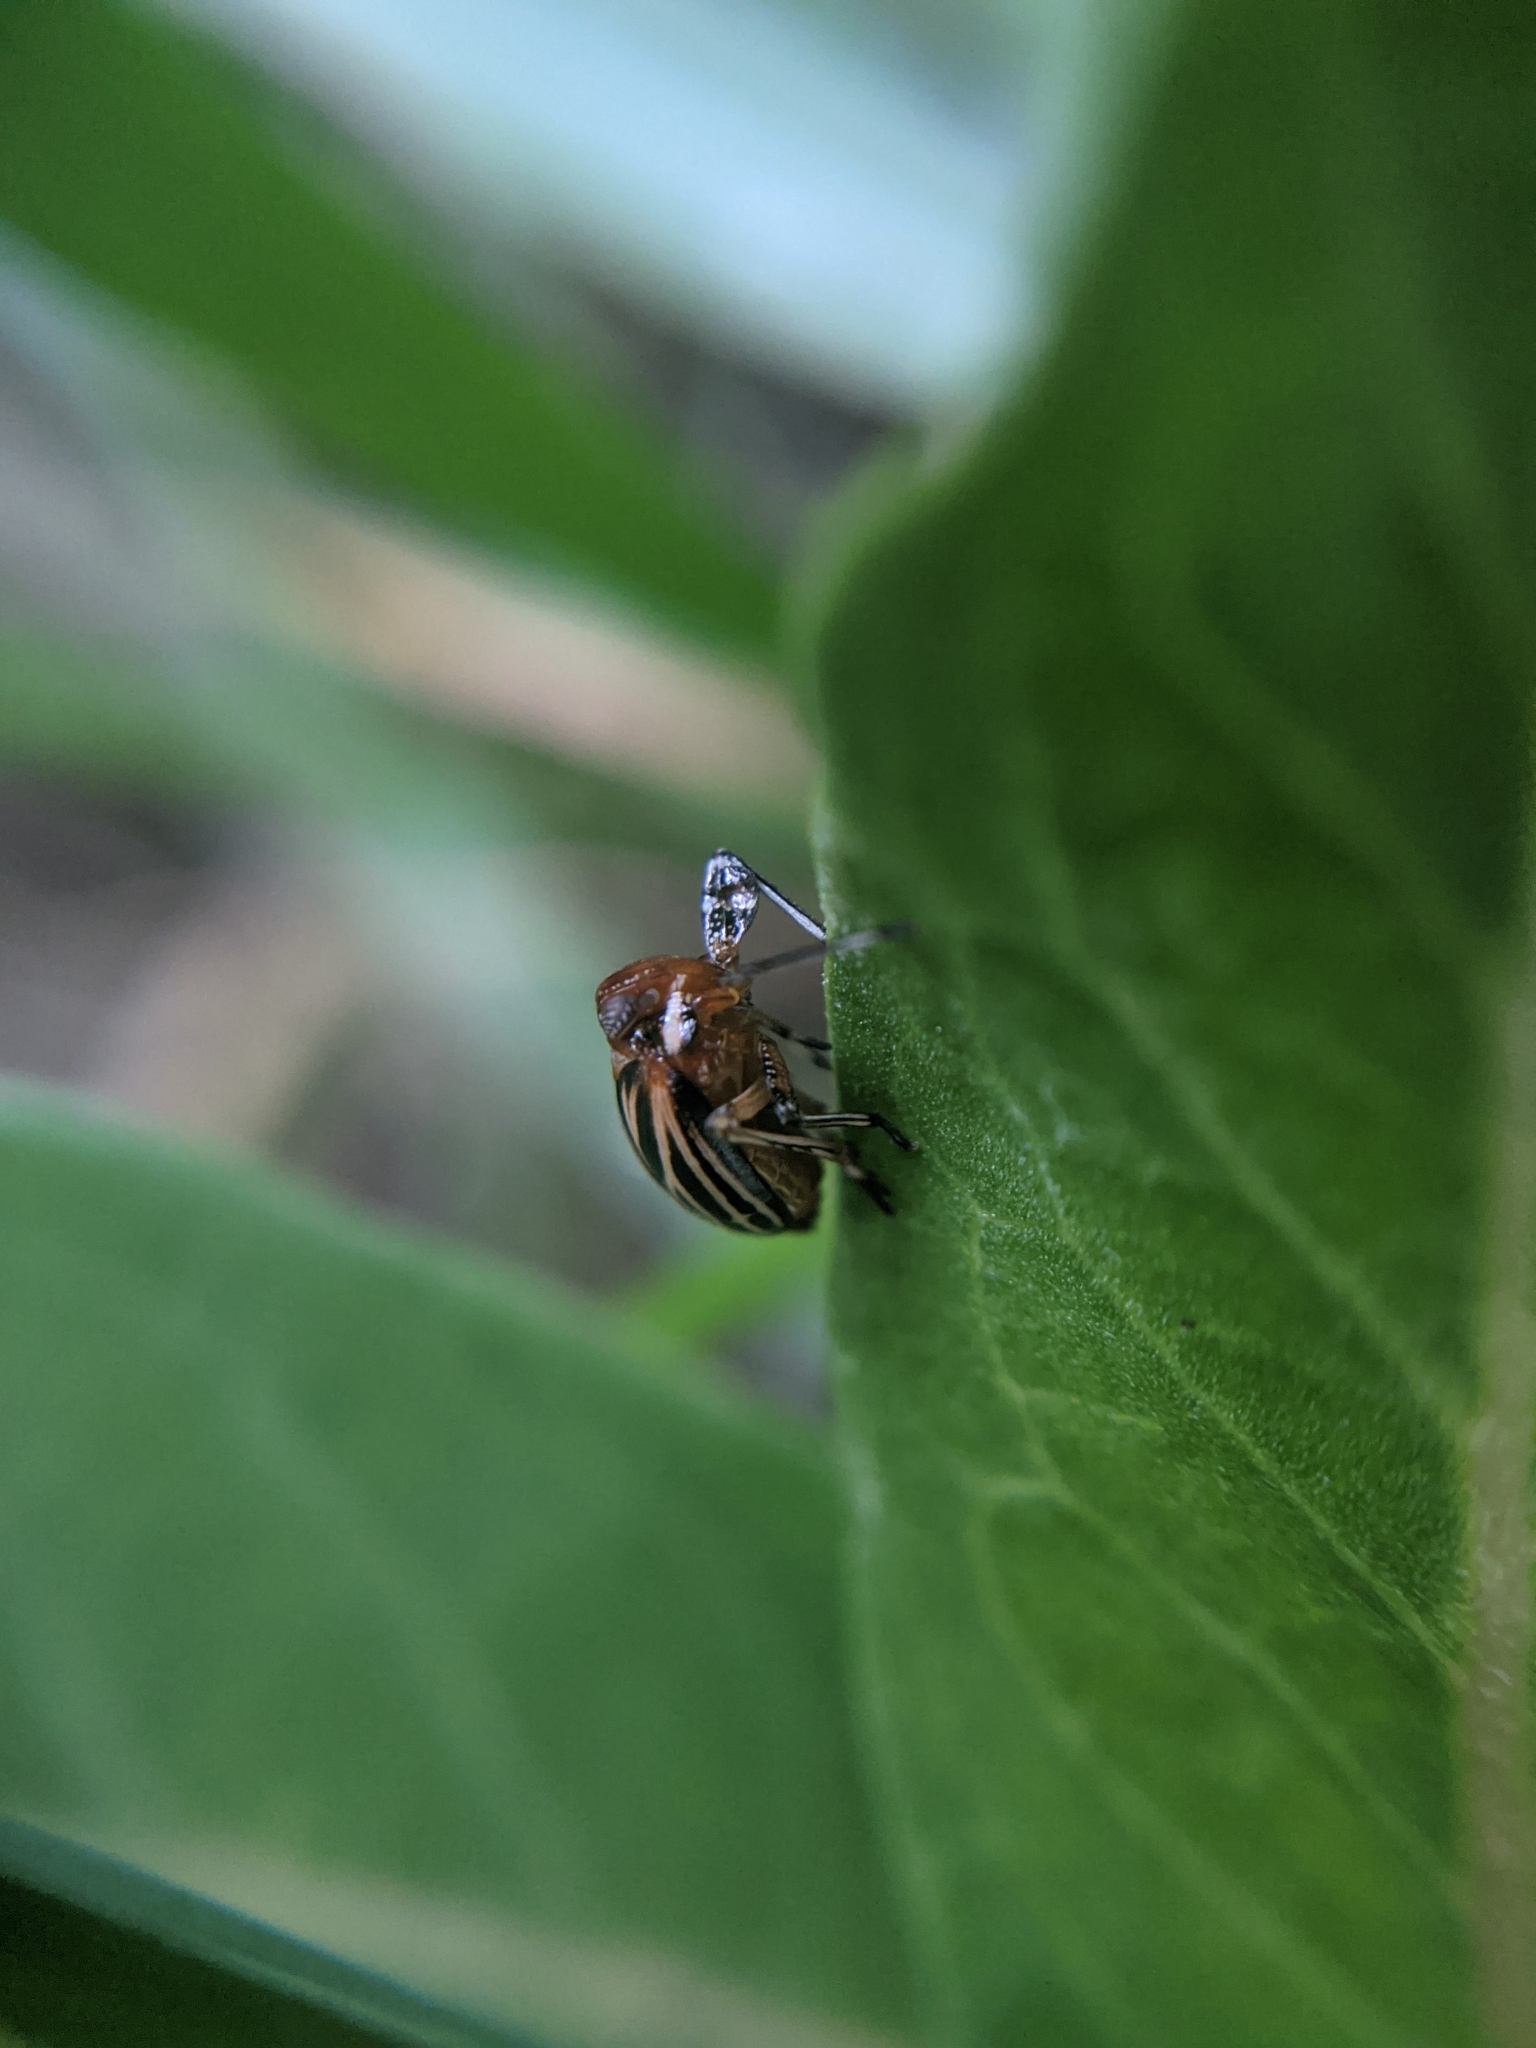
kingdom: Animalia
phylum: Arthropoda
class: Insecta
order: Hemiptera
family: Achilidae
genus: Isodaemon
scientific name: Isodaemon orontes
